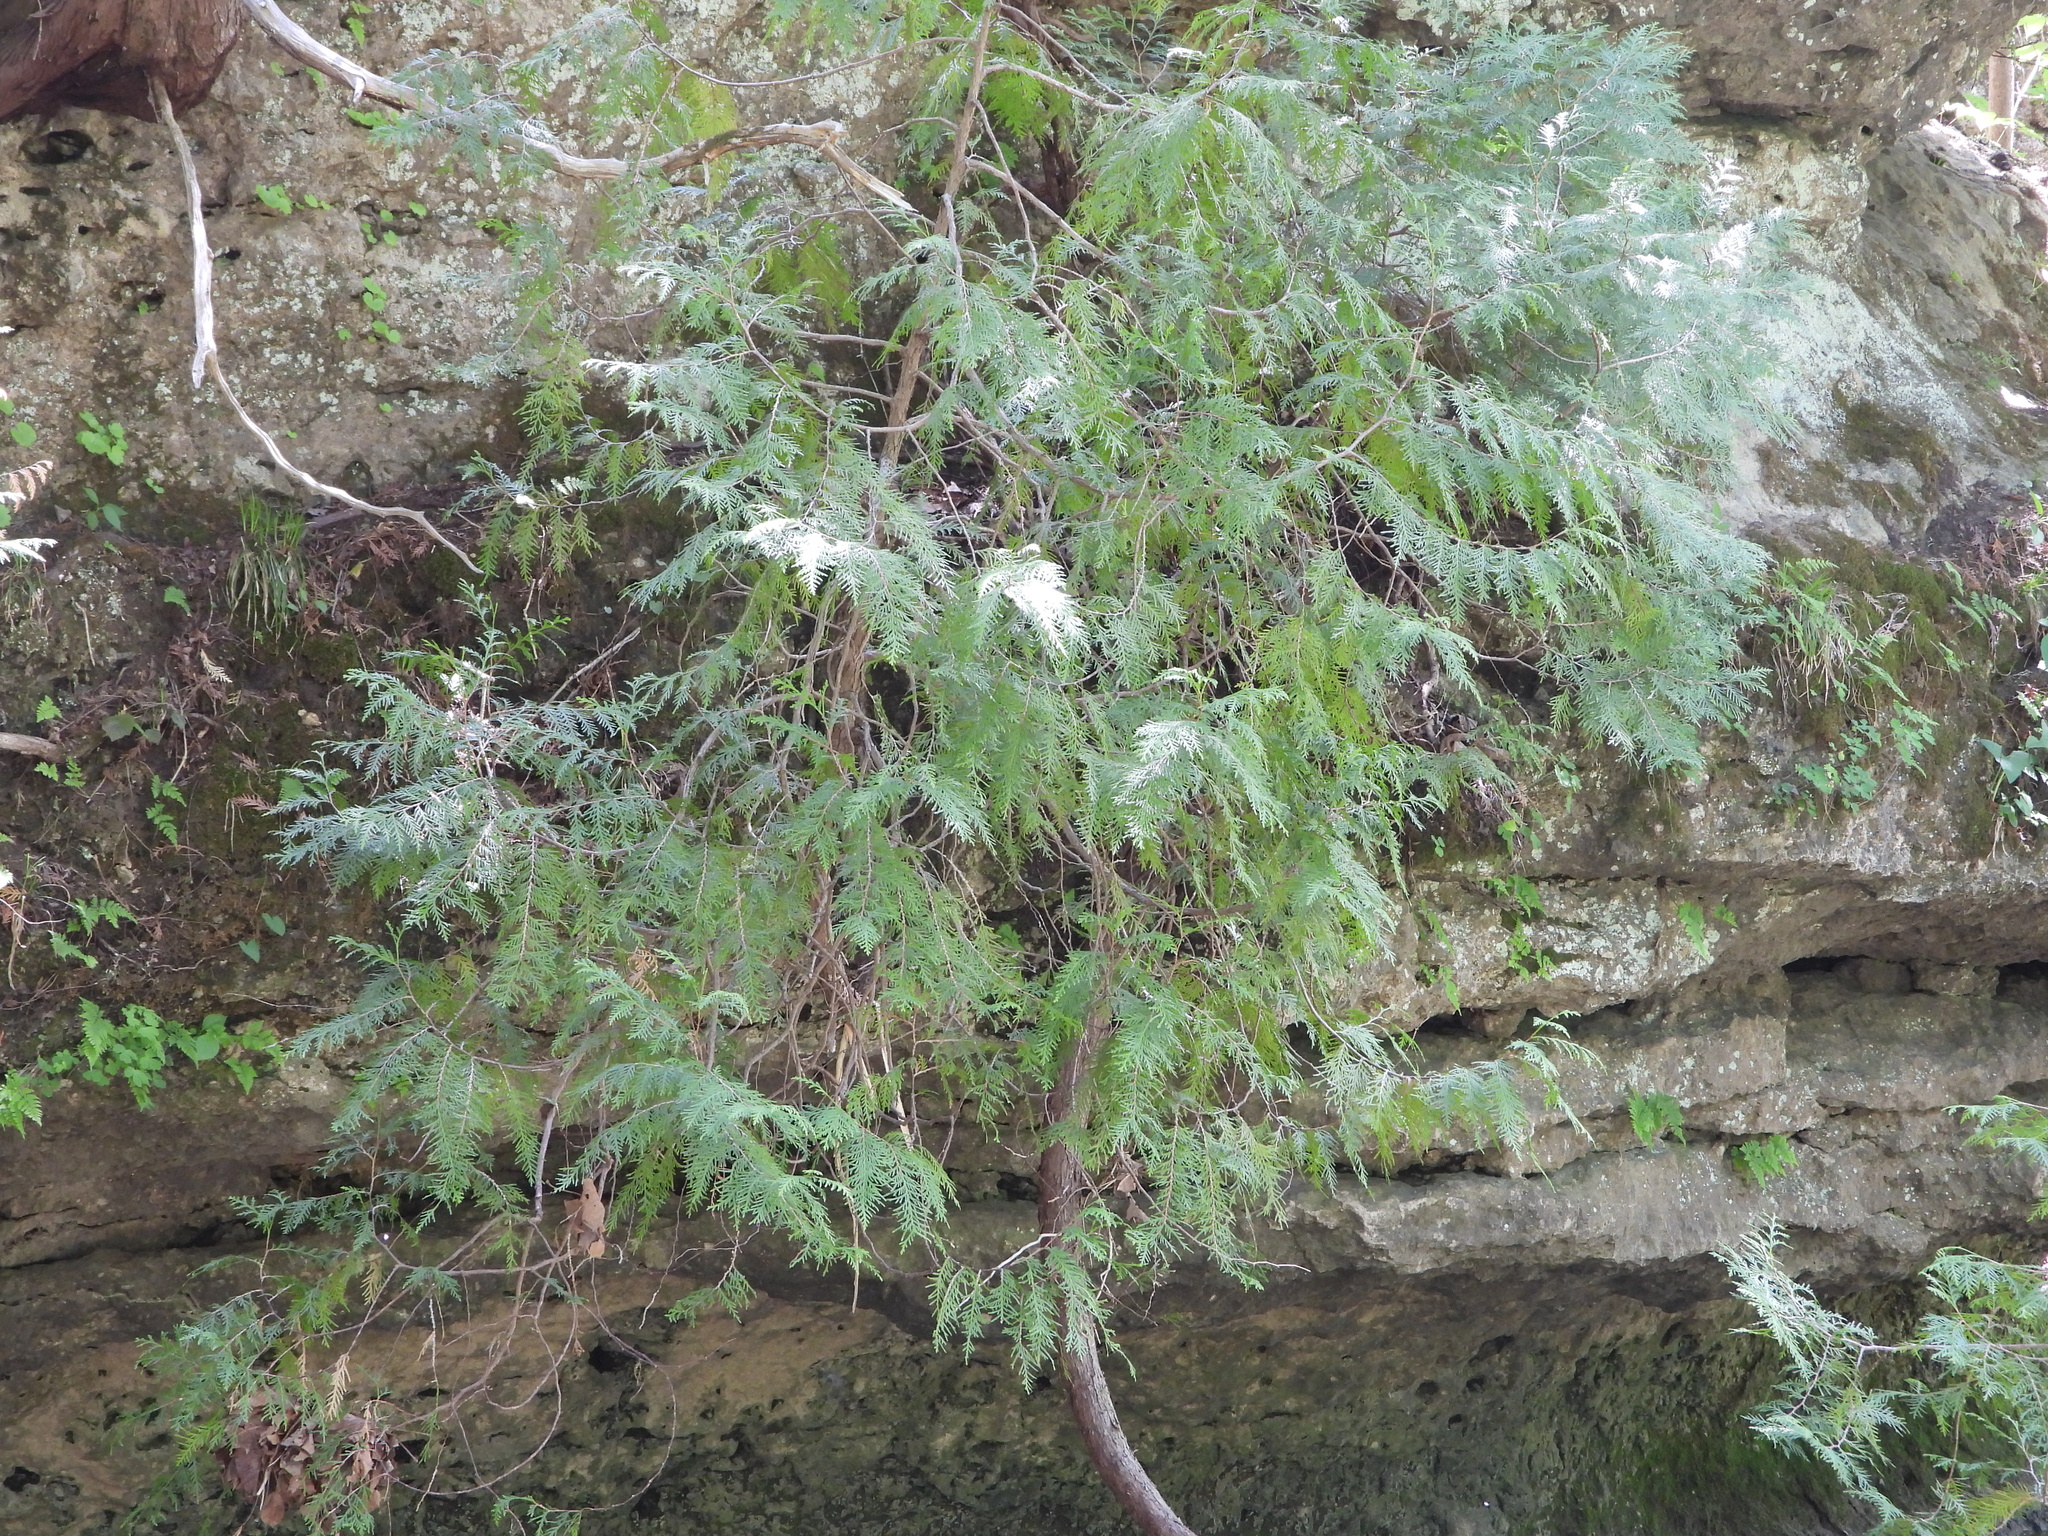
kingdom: Plantae
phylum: Tracheophyta
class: Pinopsida
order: Pinales
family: Cupressaceae
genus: Thuja
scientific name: Thuja occidentalis
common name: Northern white-cedar
